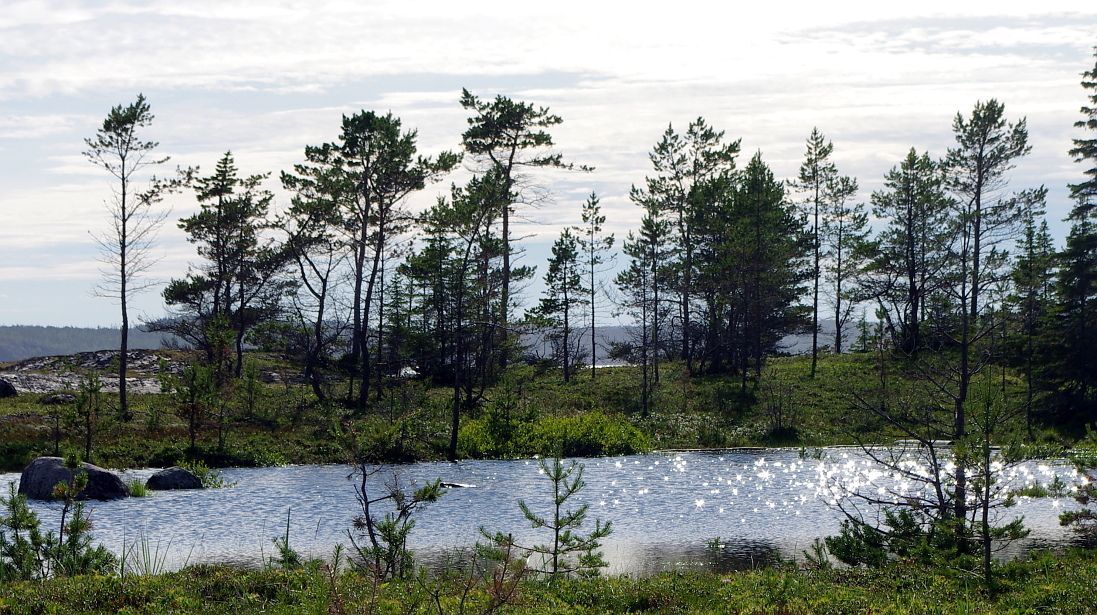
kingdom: Plantae
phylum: Tracheophyta
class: Pinopsida
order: Pinales
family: Pinaceae
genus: Pinus
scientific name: Pinus sylvestris
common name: Scots pine
